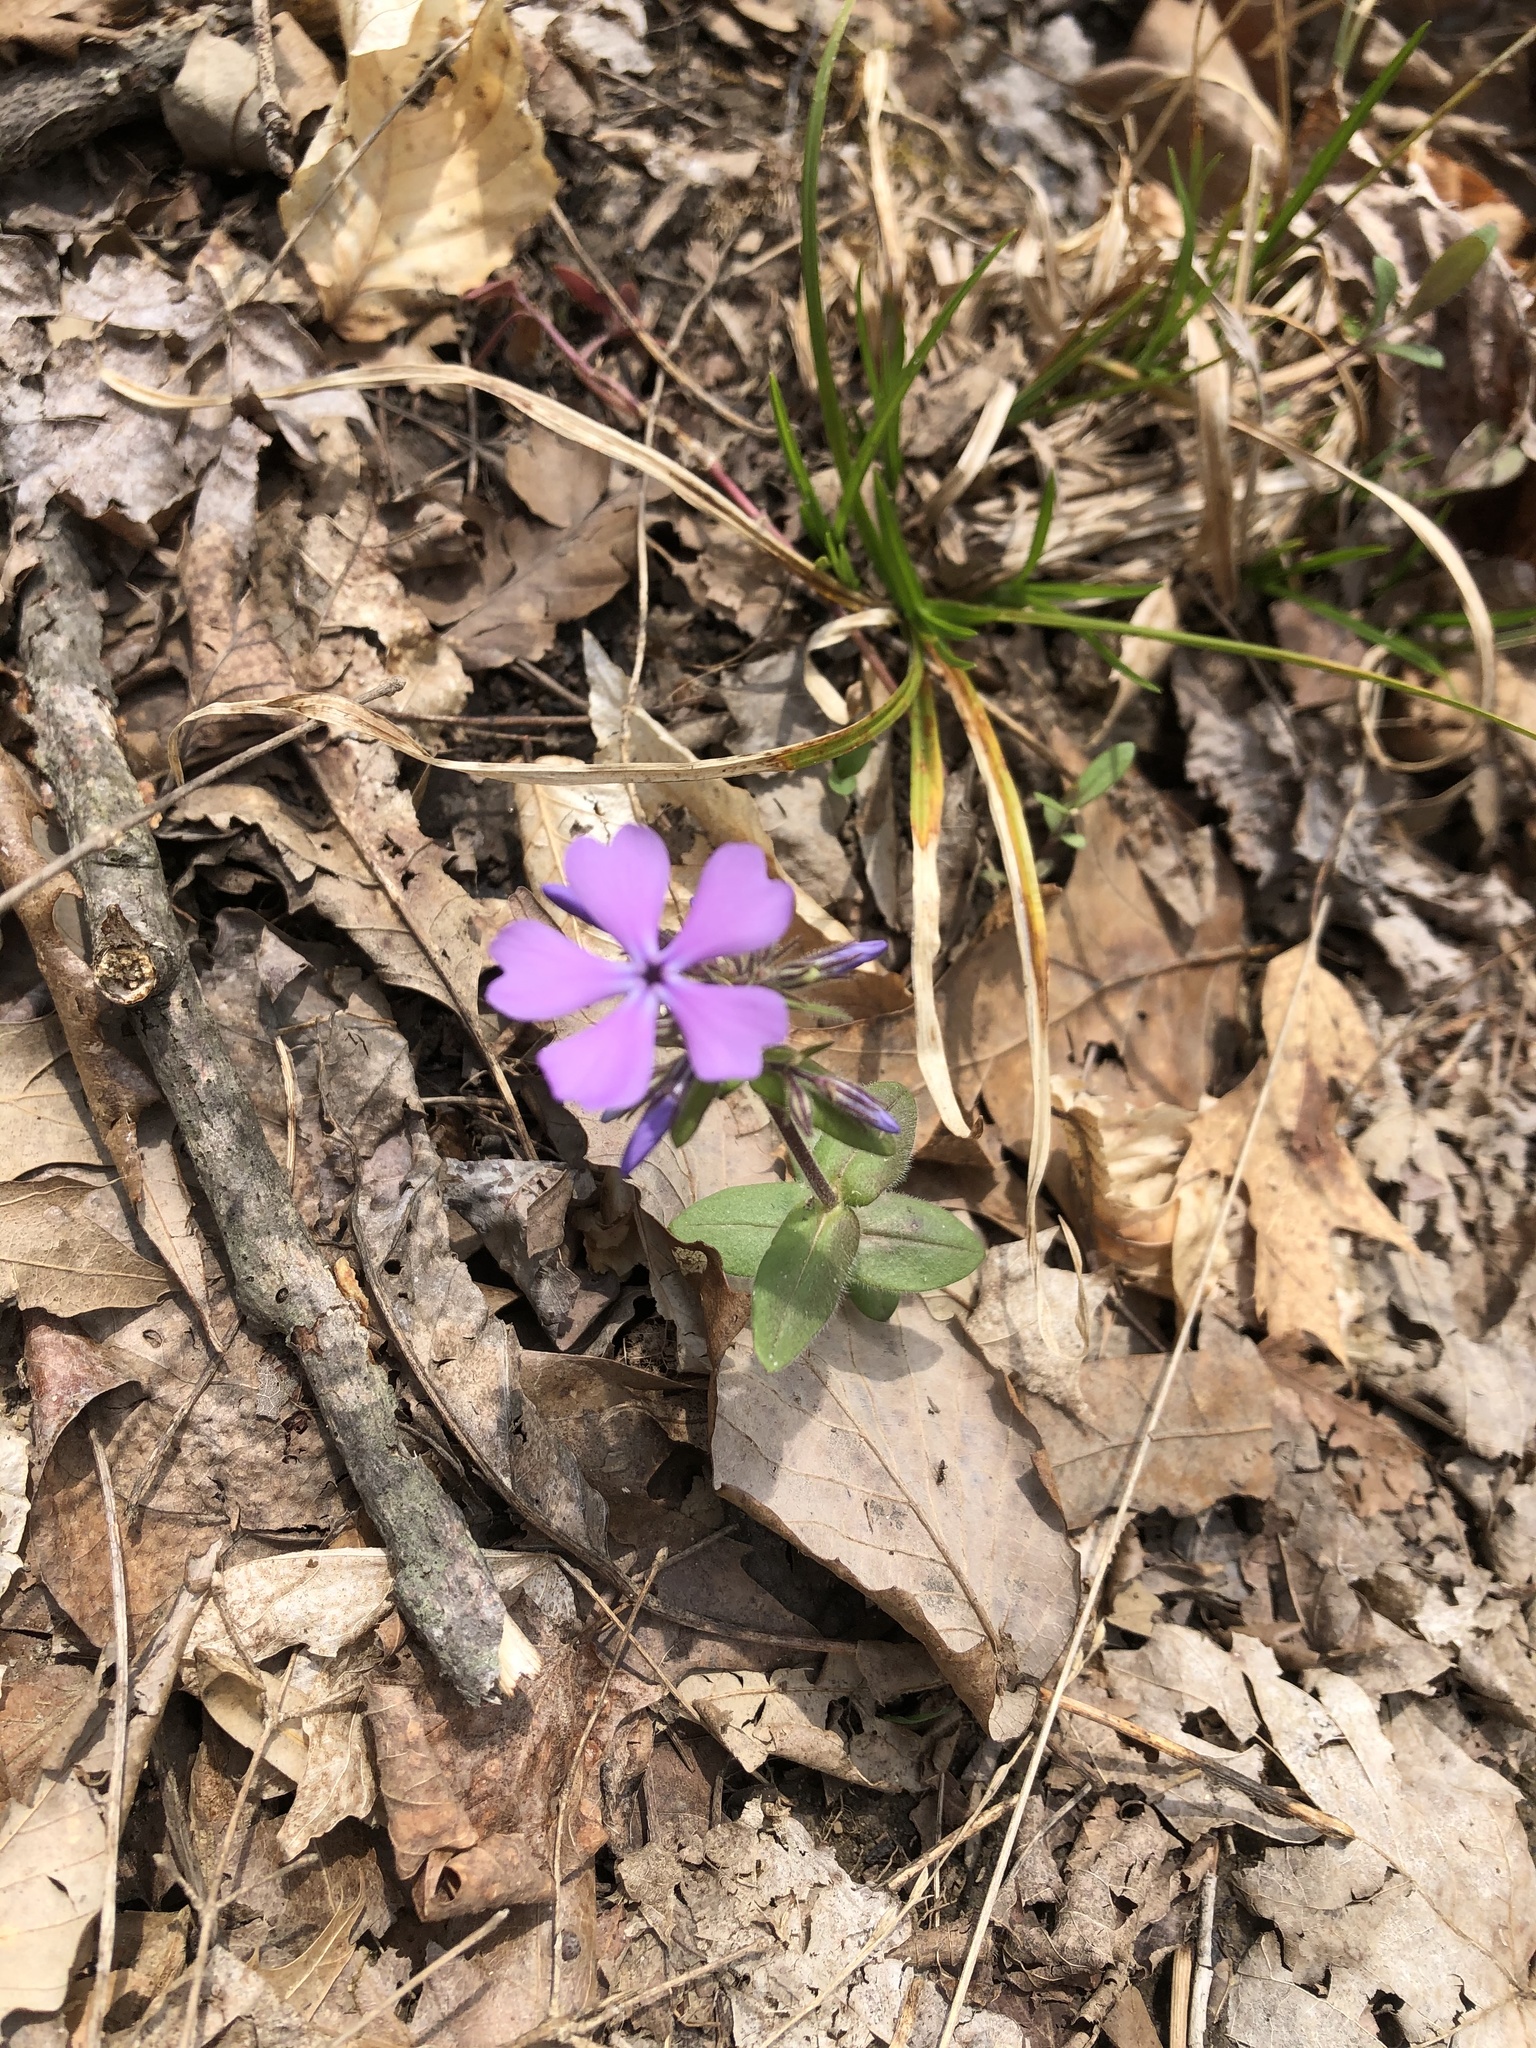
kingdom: Plantae
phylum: Tracheophyta
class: Magnoliopsida
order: Ericales
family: Polemoniaceae
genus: Phlox
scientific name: Phlox divaricata
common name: Blue phlox
